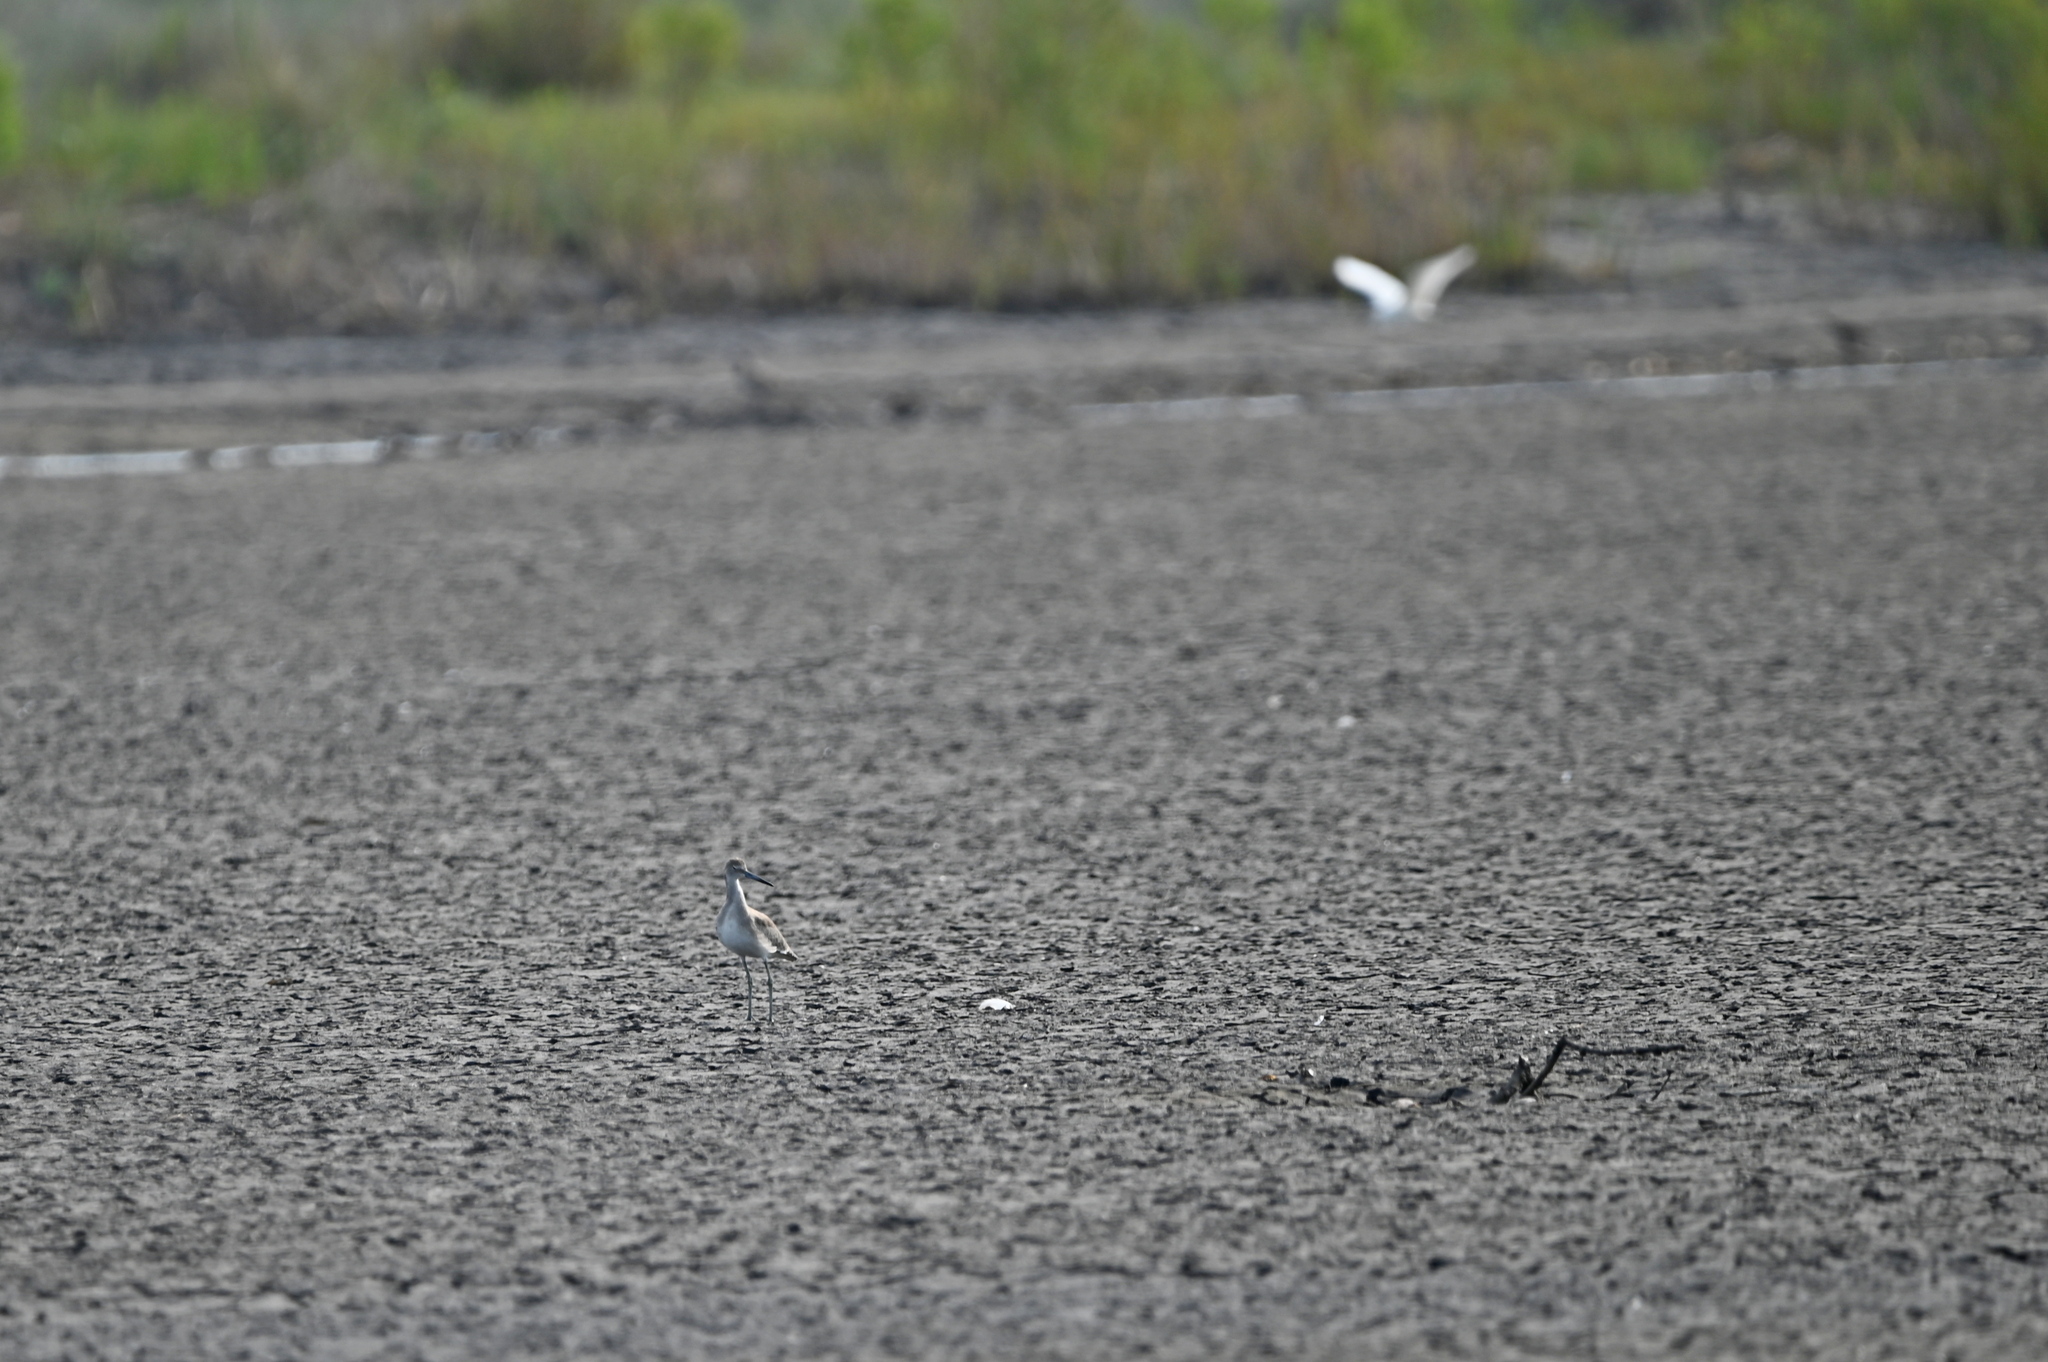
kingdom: Animalia
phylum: Chordata
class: Aves
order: Charadriiformes
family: Scolopacidae
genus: Tringa
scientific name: Tringa semipalmata
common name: Willet
